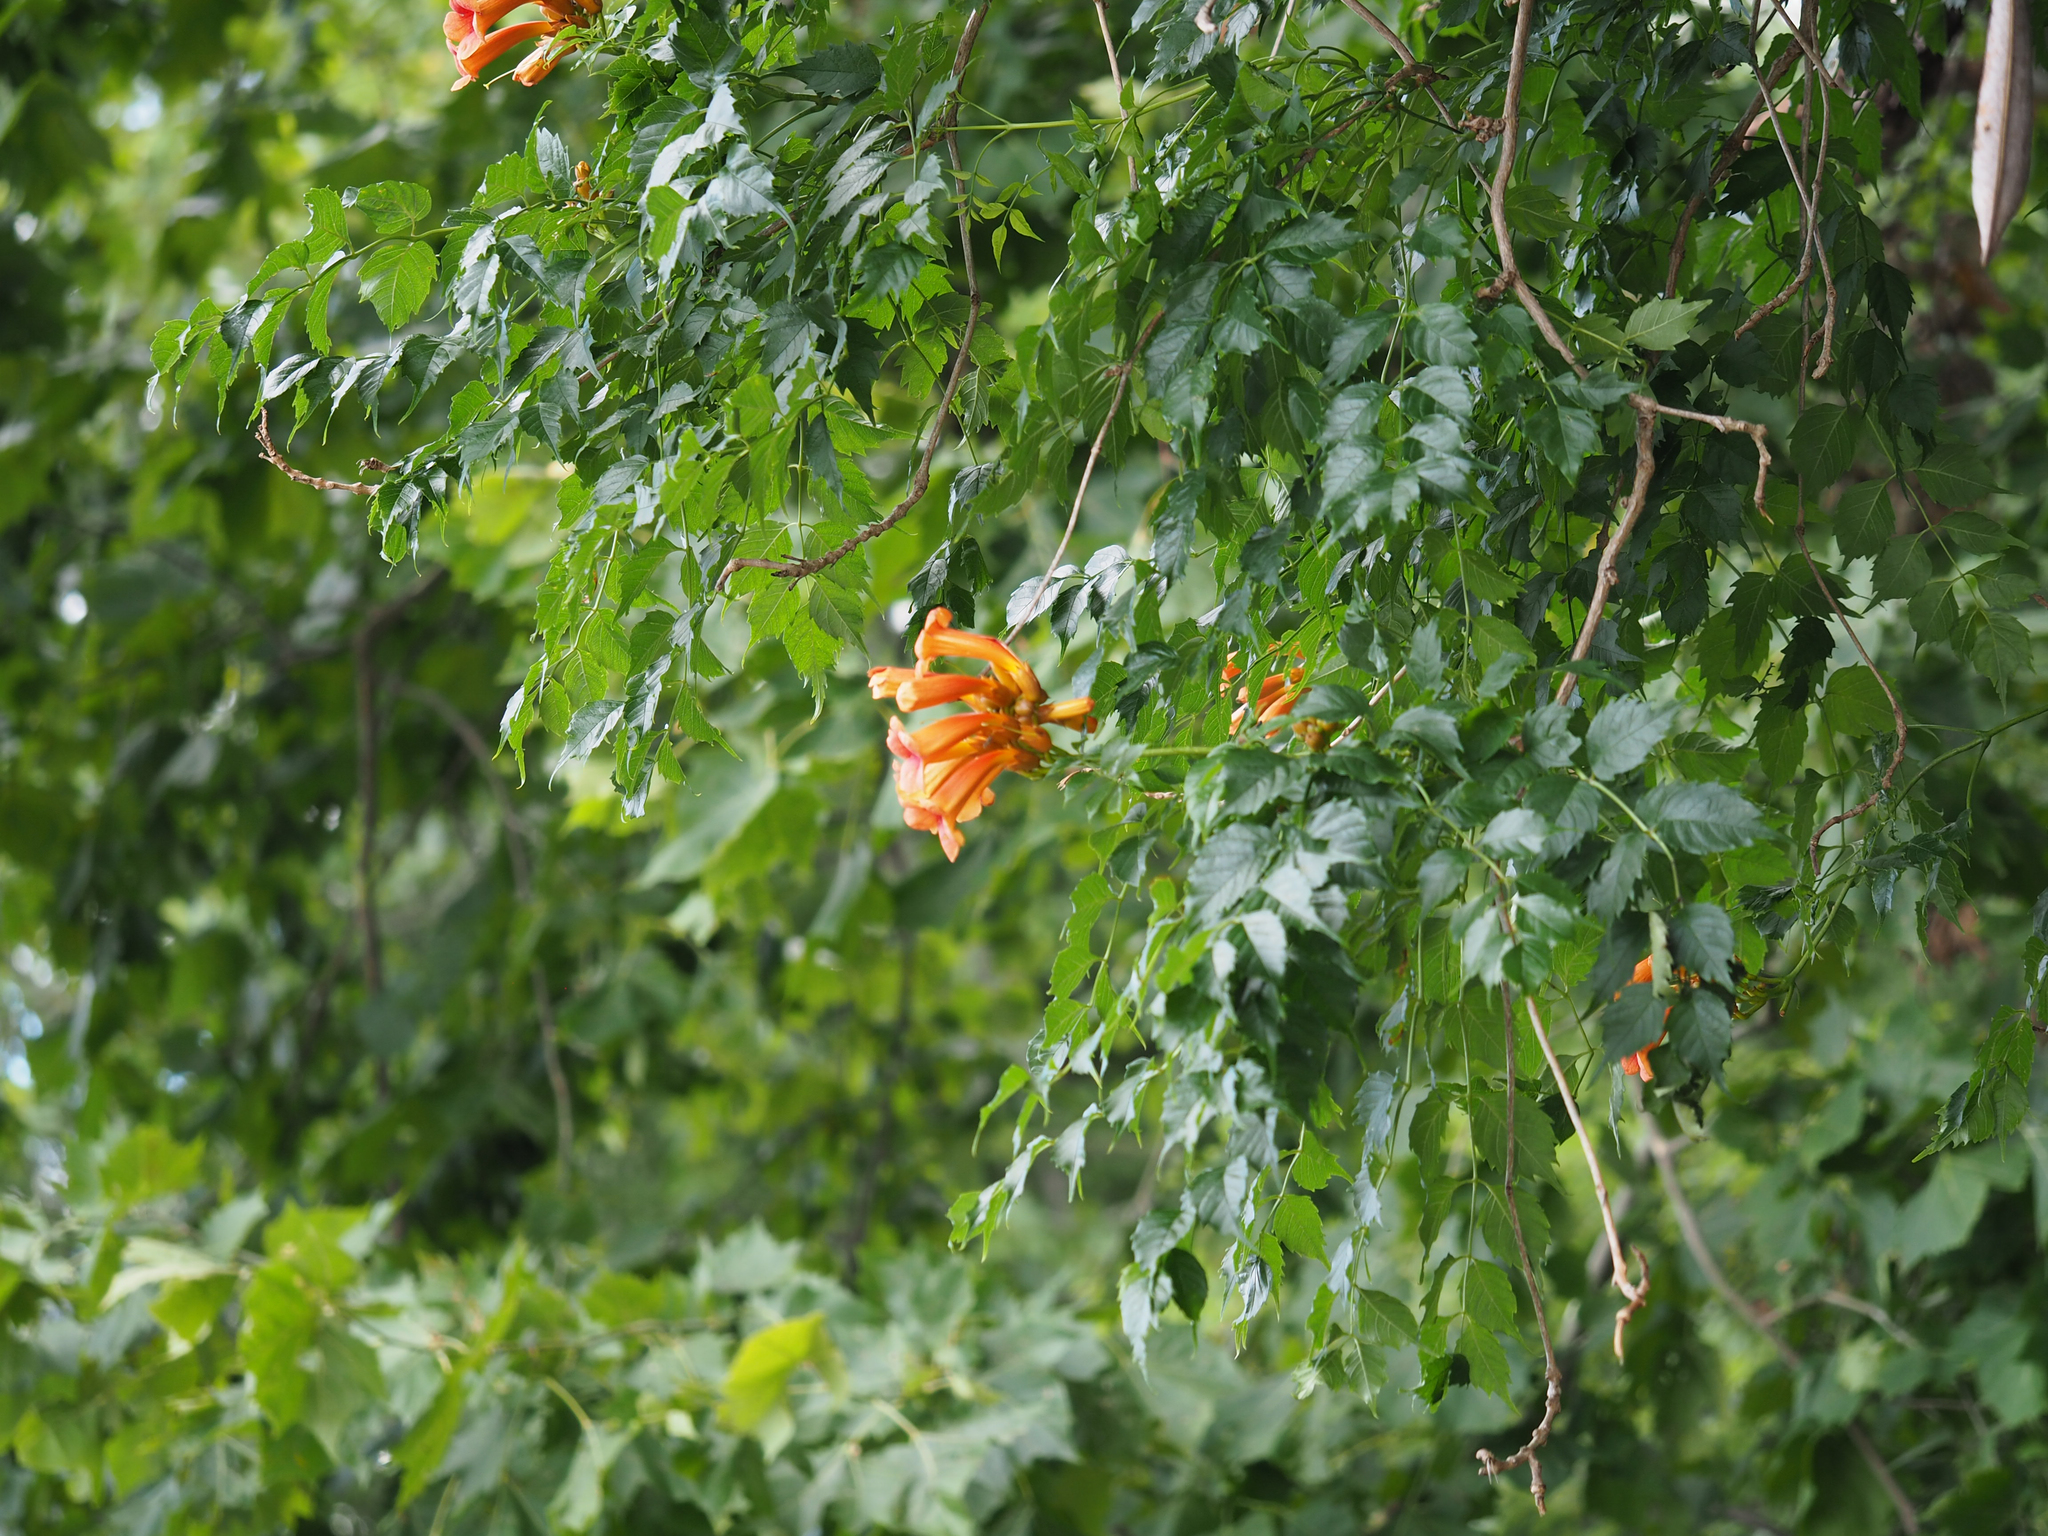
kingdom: Plantae
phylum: Tracheophyta
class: Magnoliopsida
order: Lamiales
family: Bignoniaceae
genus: Campsis
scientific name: Campsis radicans
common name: Trumpet-creeper
